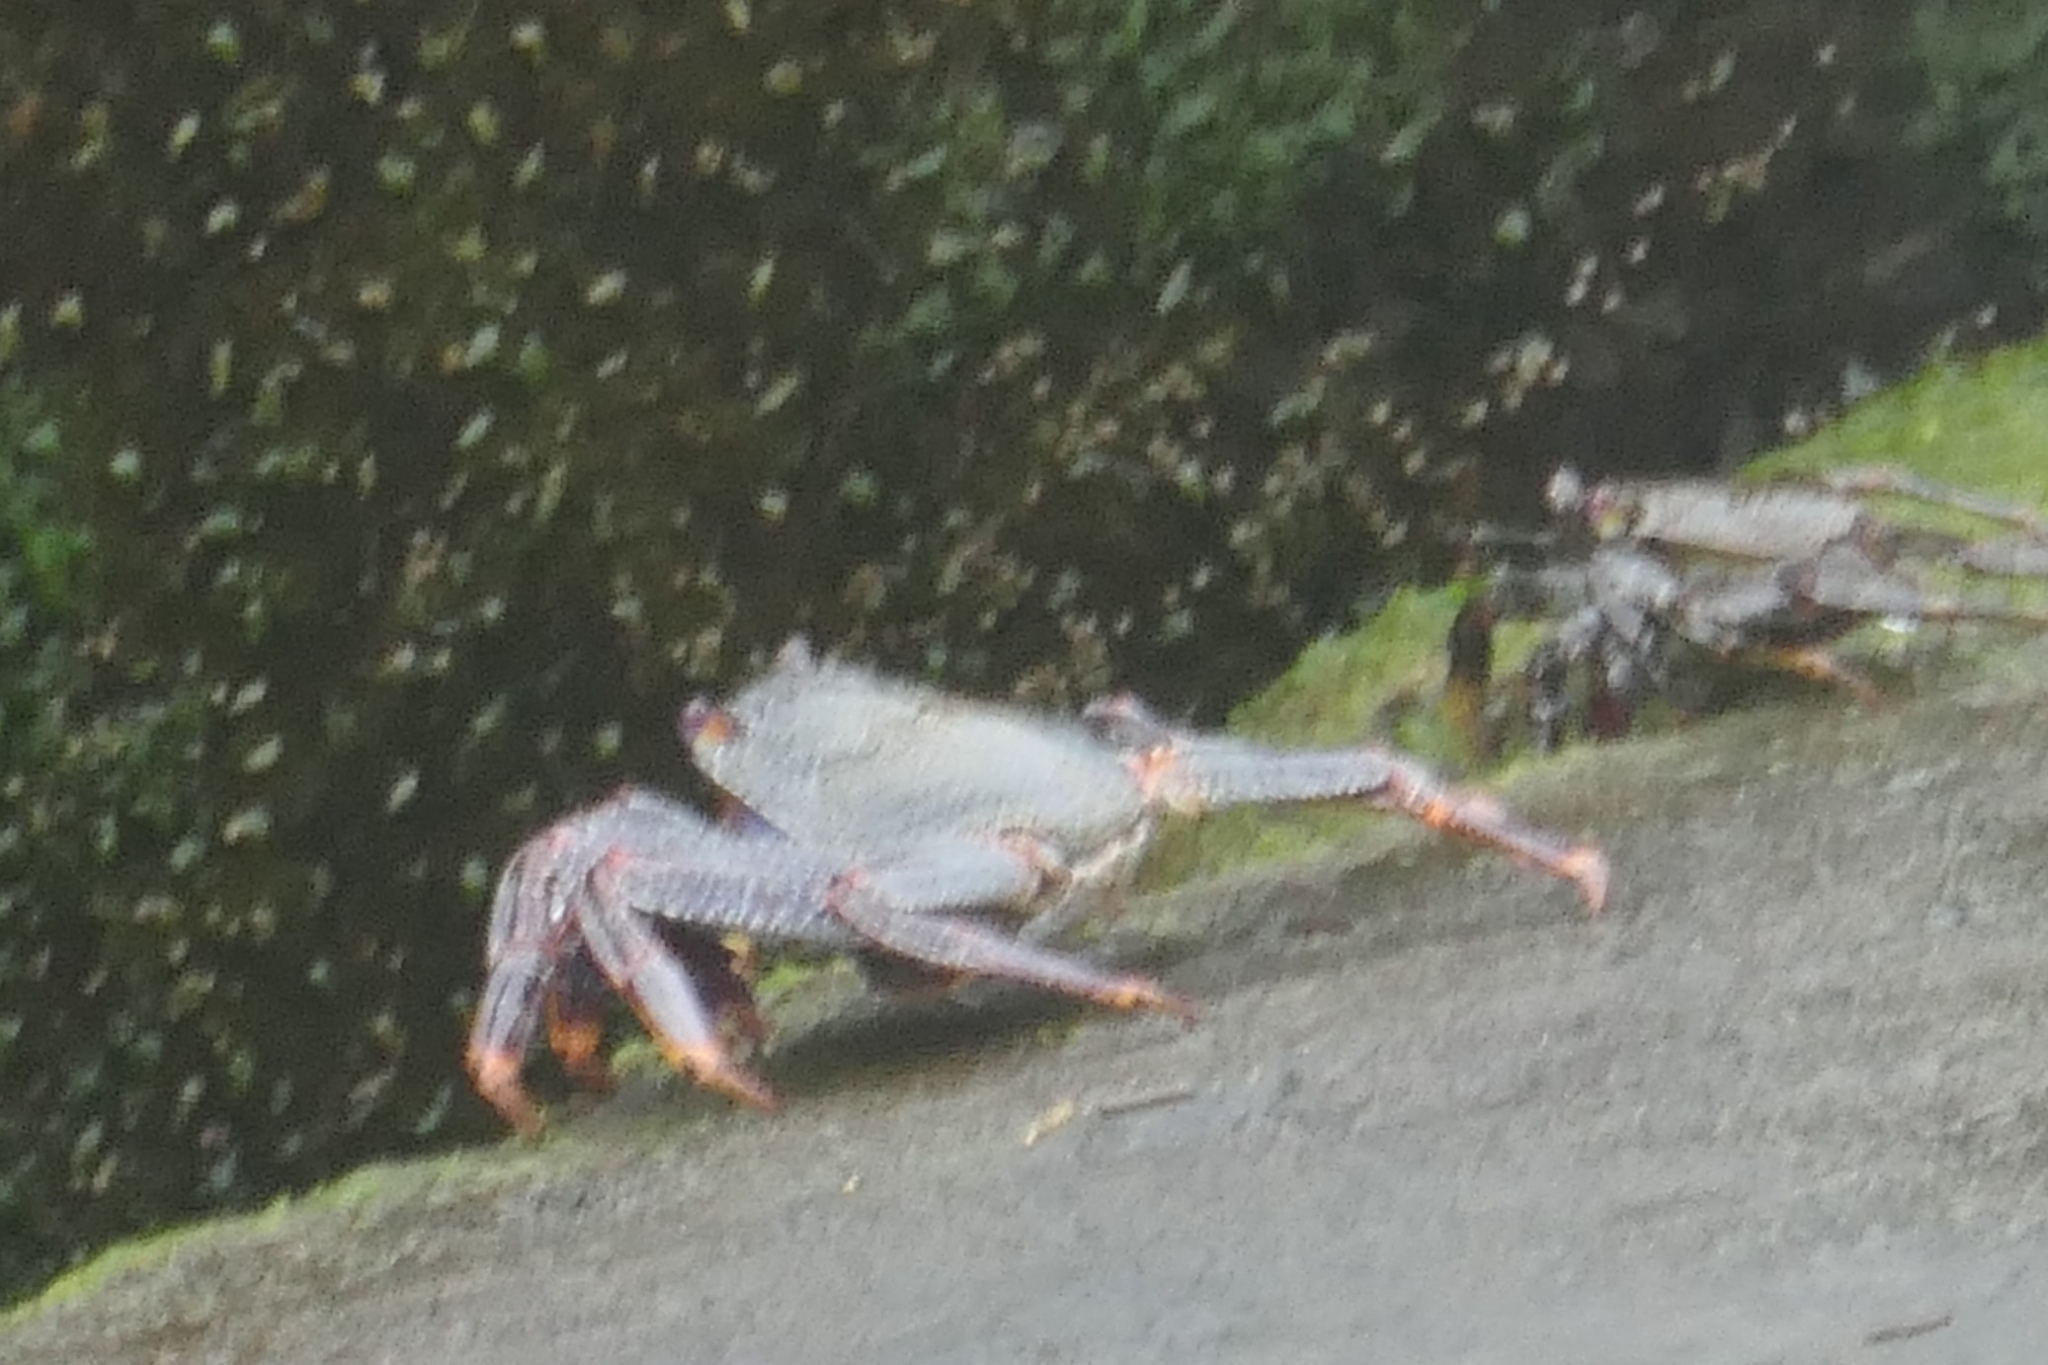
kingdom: Animalia
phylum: Arthropoda
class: Malacostraca
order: Decapoda
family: Grapsidae
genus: Grapsus
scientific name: Grapsus adscensionis
